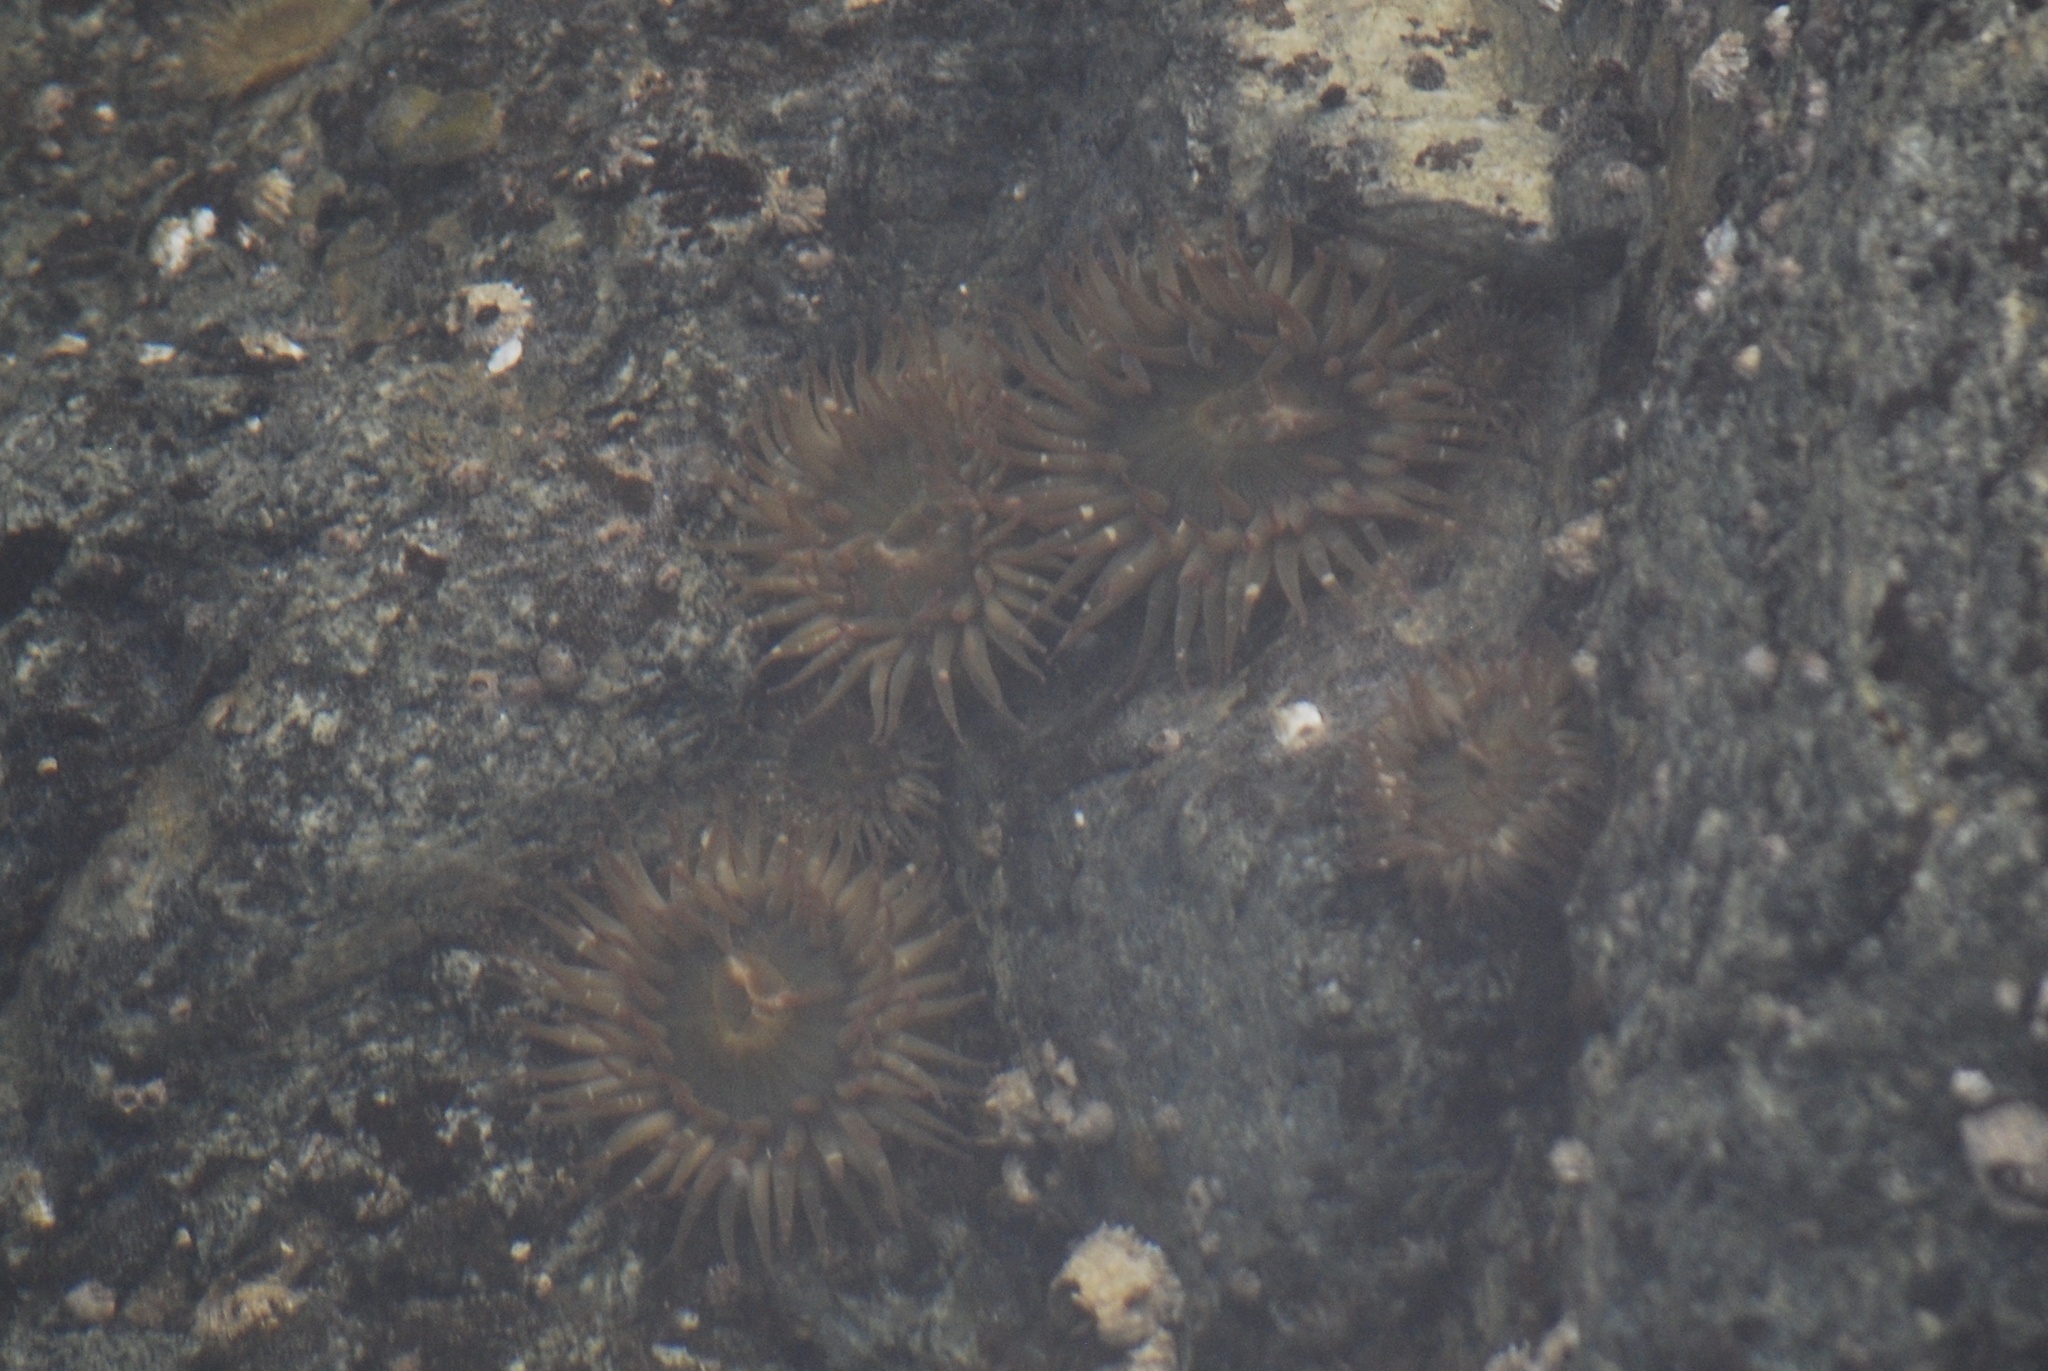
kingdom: Animalia
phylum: Cnidaria
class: Anthozoa
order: Actiniaria
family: Actiniidae
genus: Anthopleura
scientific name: Anthopleura elegantissima
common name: Clonal anemone
